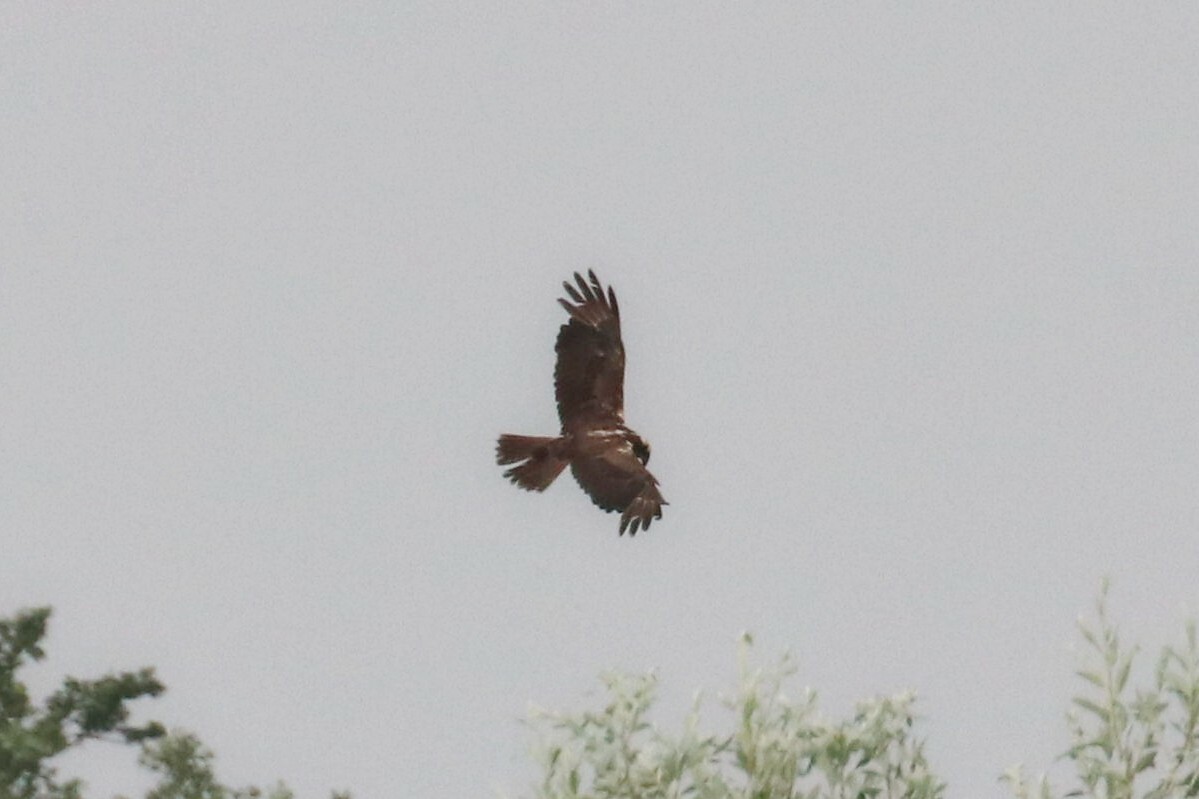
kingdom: Animalia
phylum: Chordata
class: Aves
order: Accipitriformes
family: Accipitridae
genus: Circus
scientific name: Circus aeruginosus
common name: Western marsh harrier
